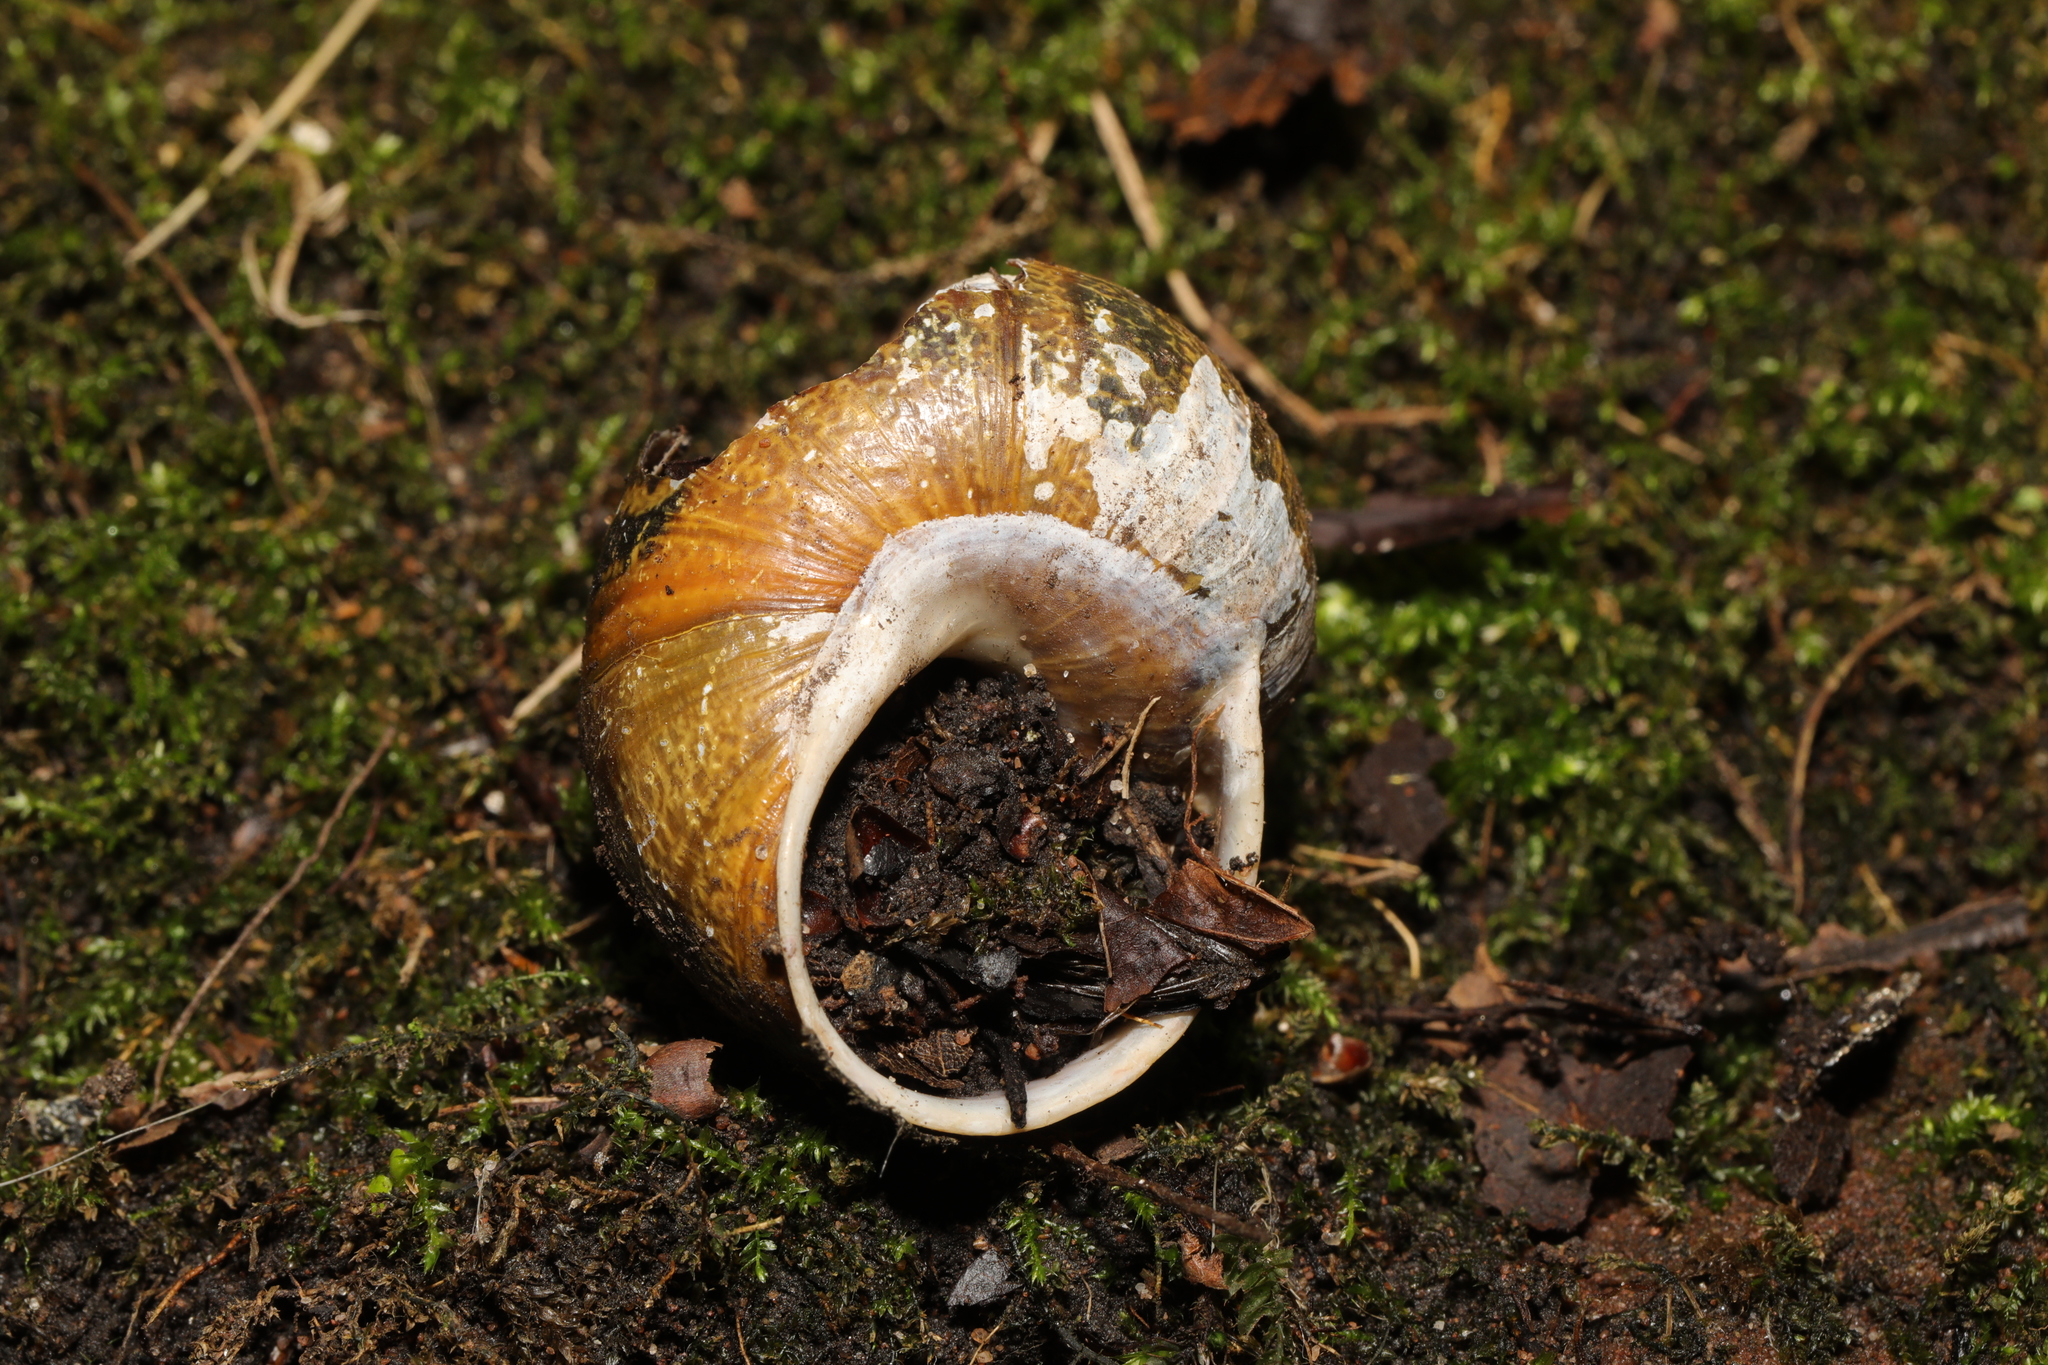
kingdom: Animalia
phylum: Mollusca
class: Gastropoda
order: Stylommatophora
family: Helicidae
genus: Cornu
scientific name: Cornu aspersum
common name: Brown garden snail
